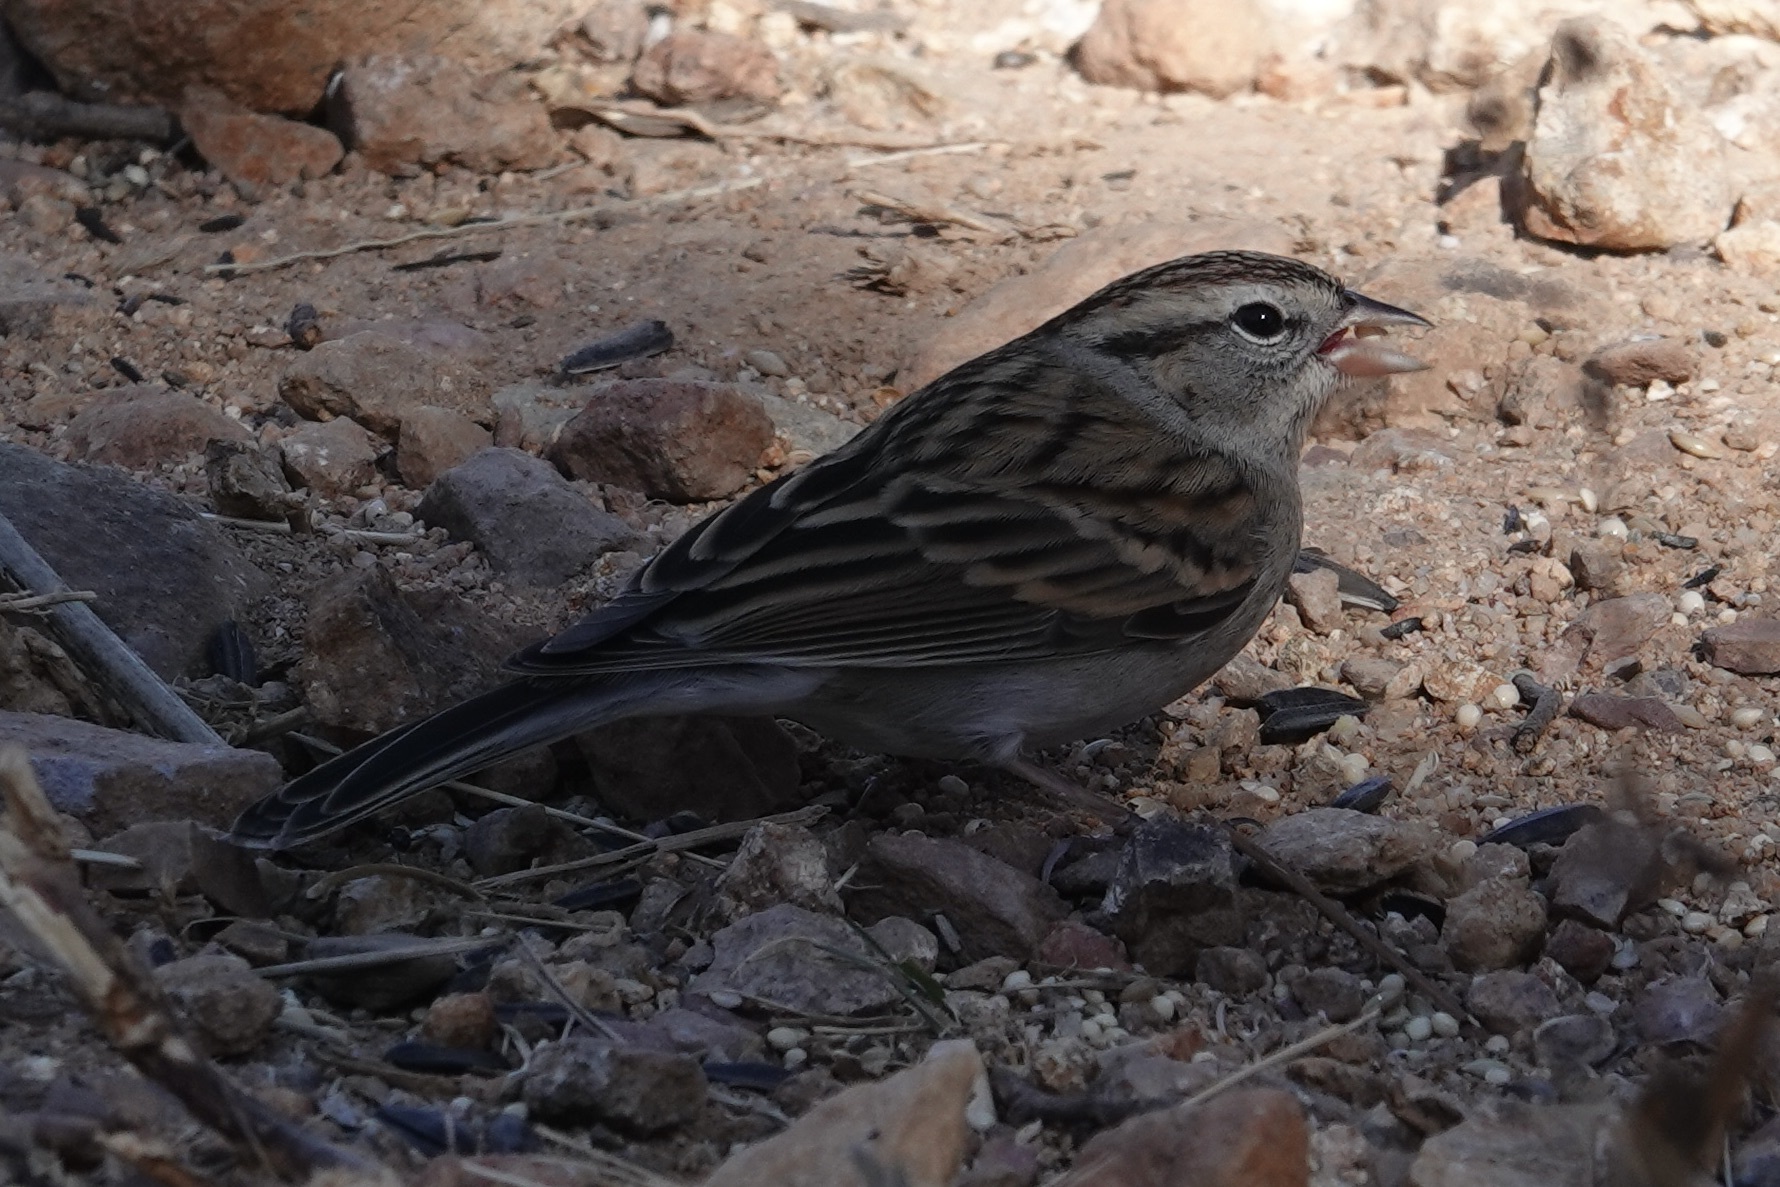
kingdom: Animalia
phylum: Chordata
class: Aves
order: Passeriformes
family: Passerellidae
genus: Spizella
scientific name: Spizella passerina
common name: Chipping sparrow
